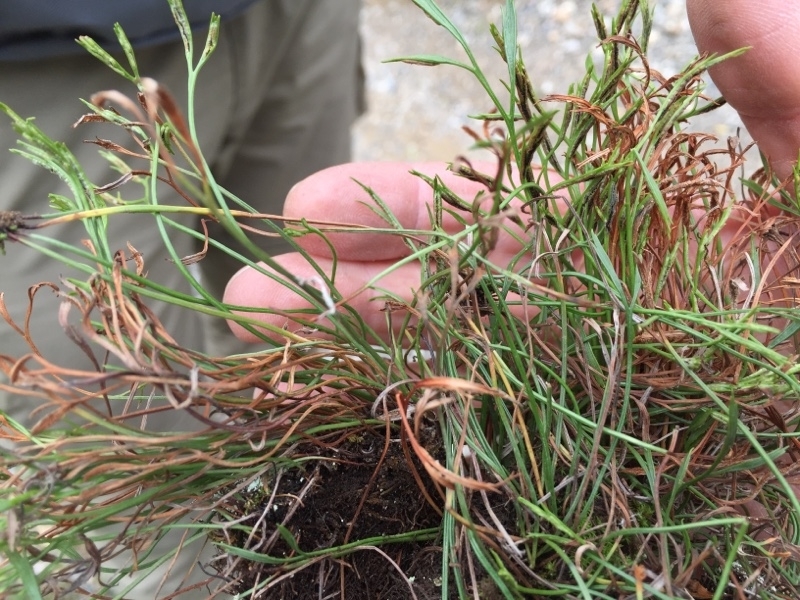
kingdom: Plantae
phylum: Tracheophyta
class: Polypodiopsida
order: Polypodiales
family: Aspleniaceae
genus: Asplenium
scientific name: Asplenium septentrionale
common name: Forked spleenwort
